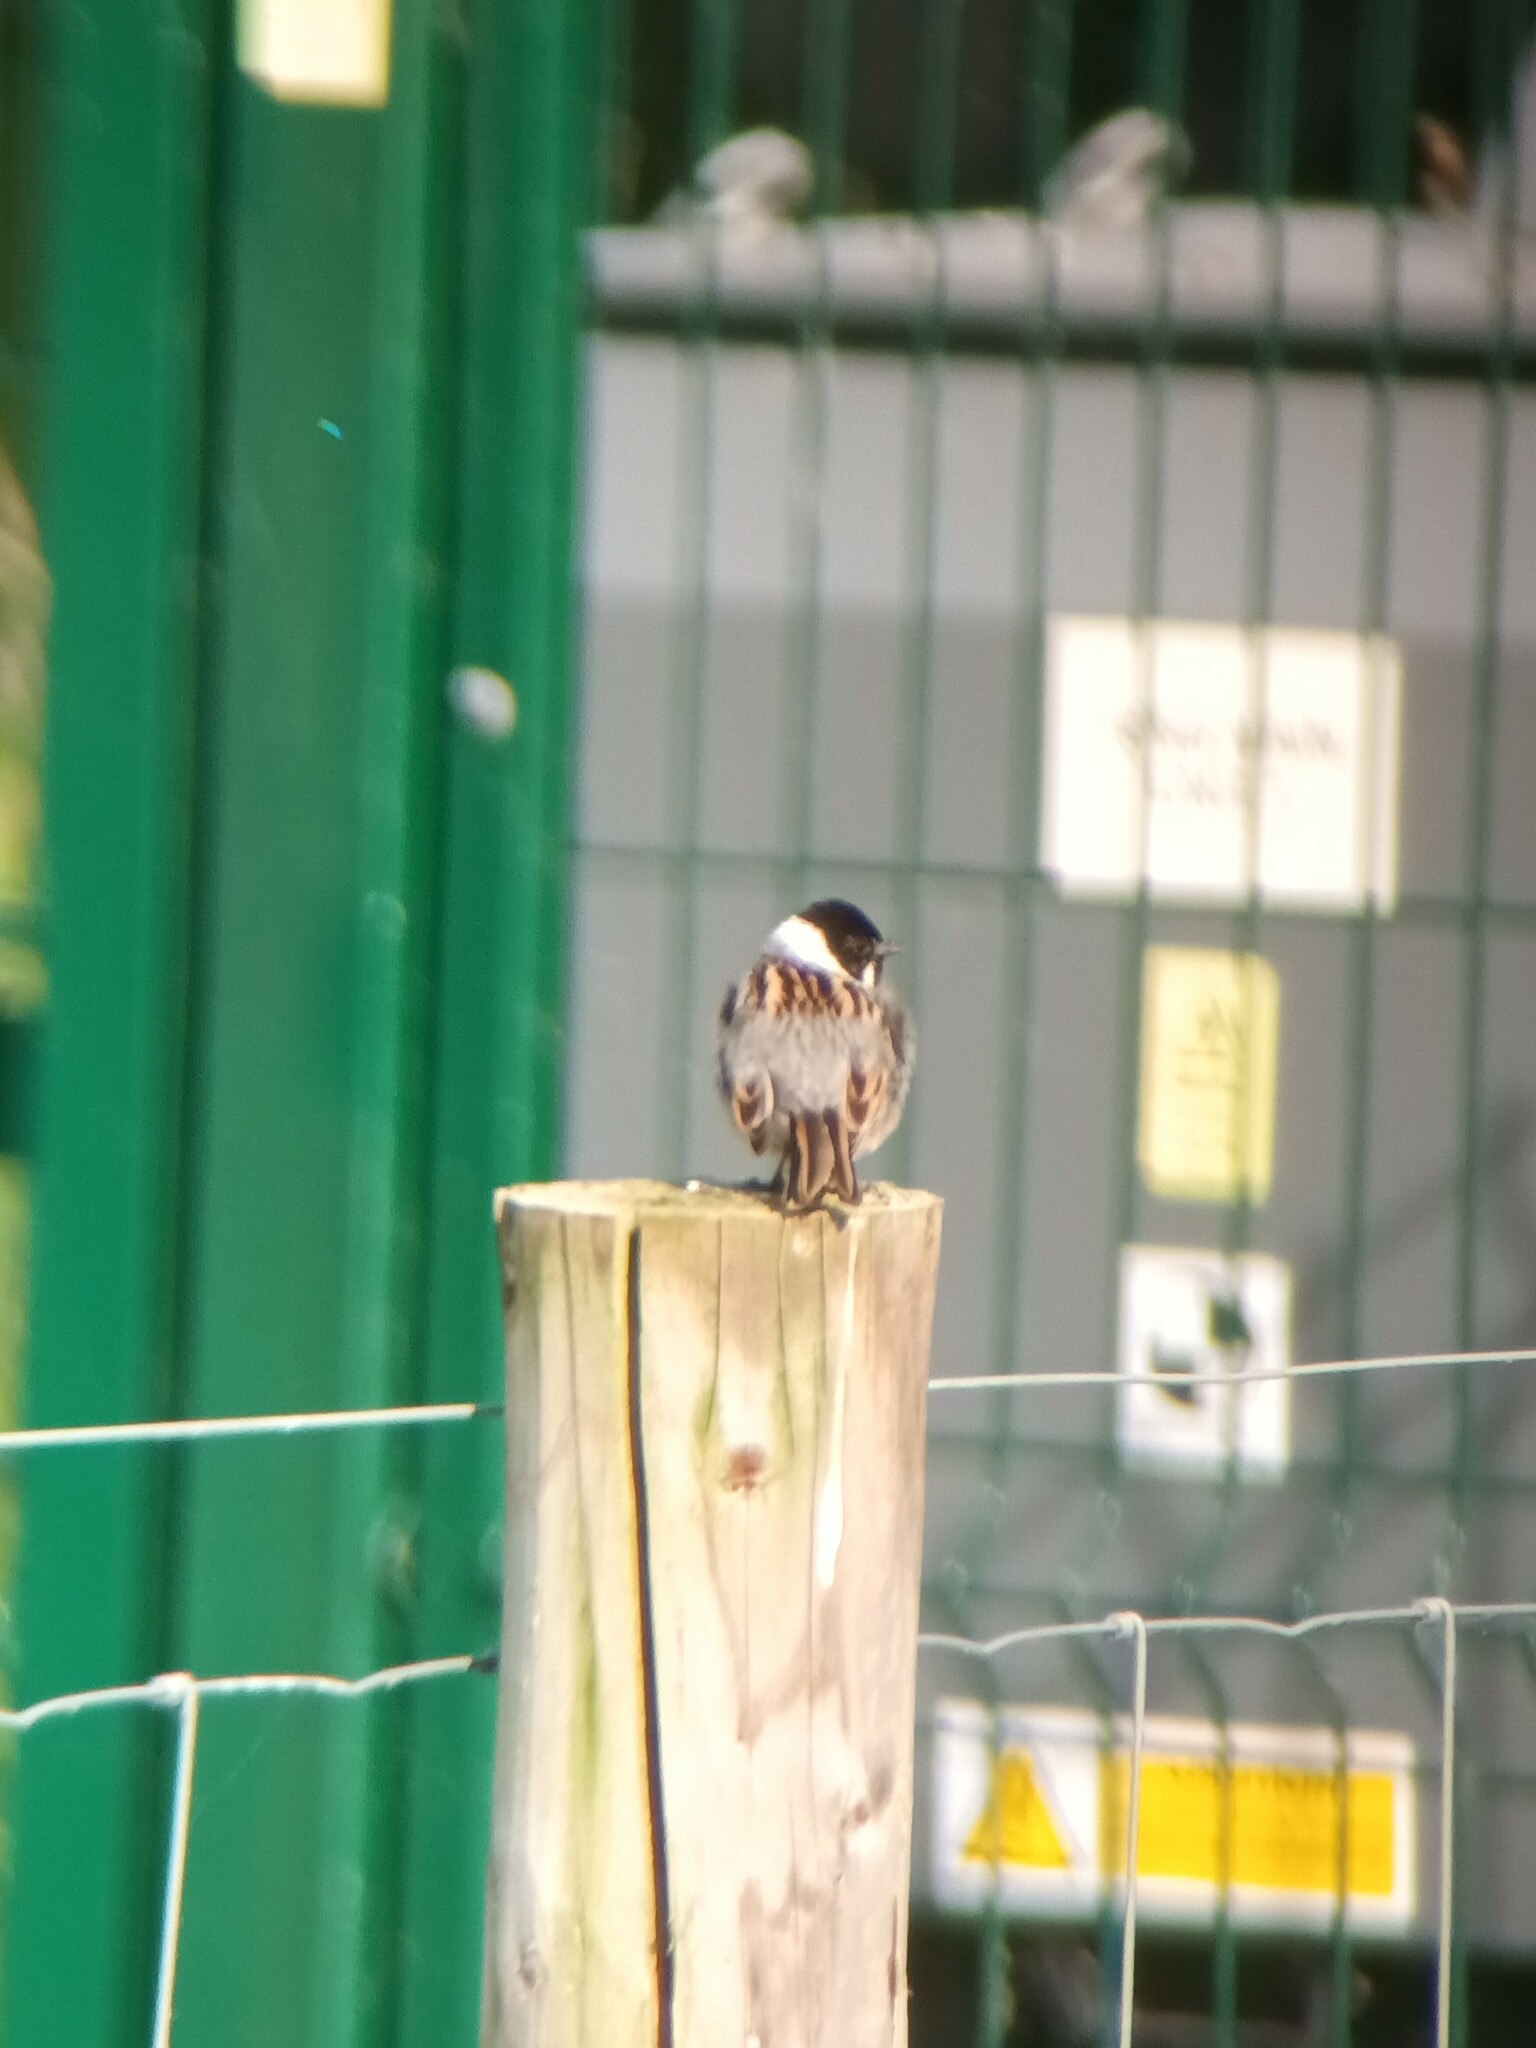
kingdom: Animalia
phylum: Chordata
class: Aves
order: Passeriformes
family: Emberizidae
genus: Emberiza
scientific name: Emberiza schoeniclus
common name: Reed bunting
